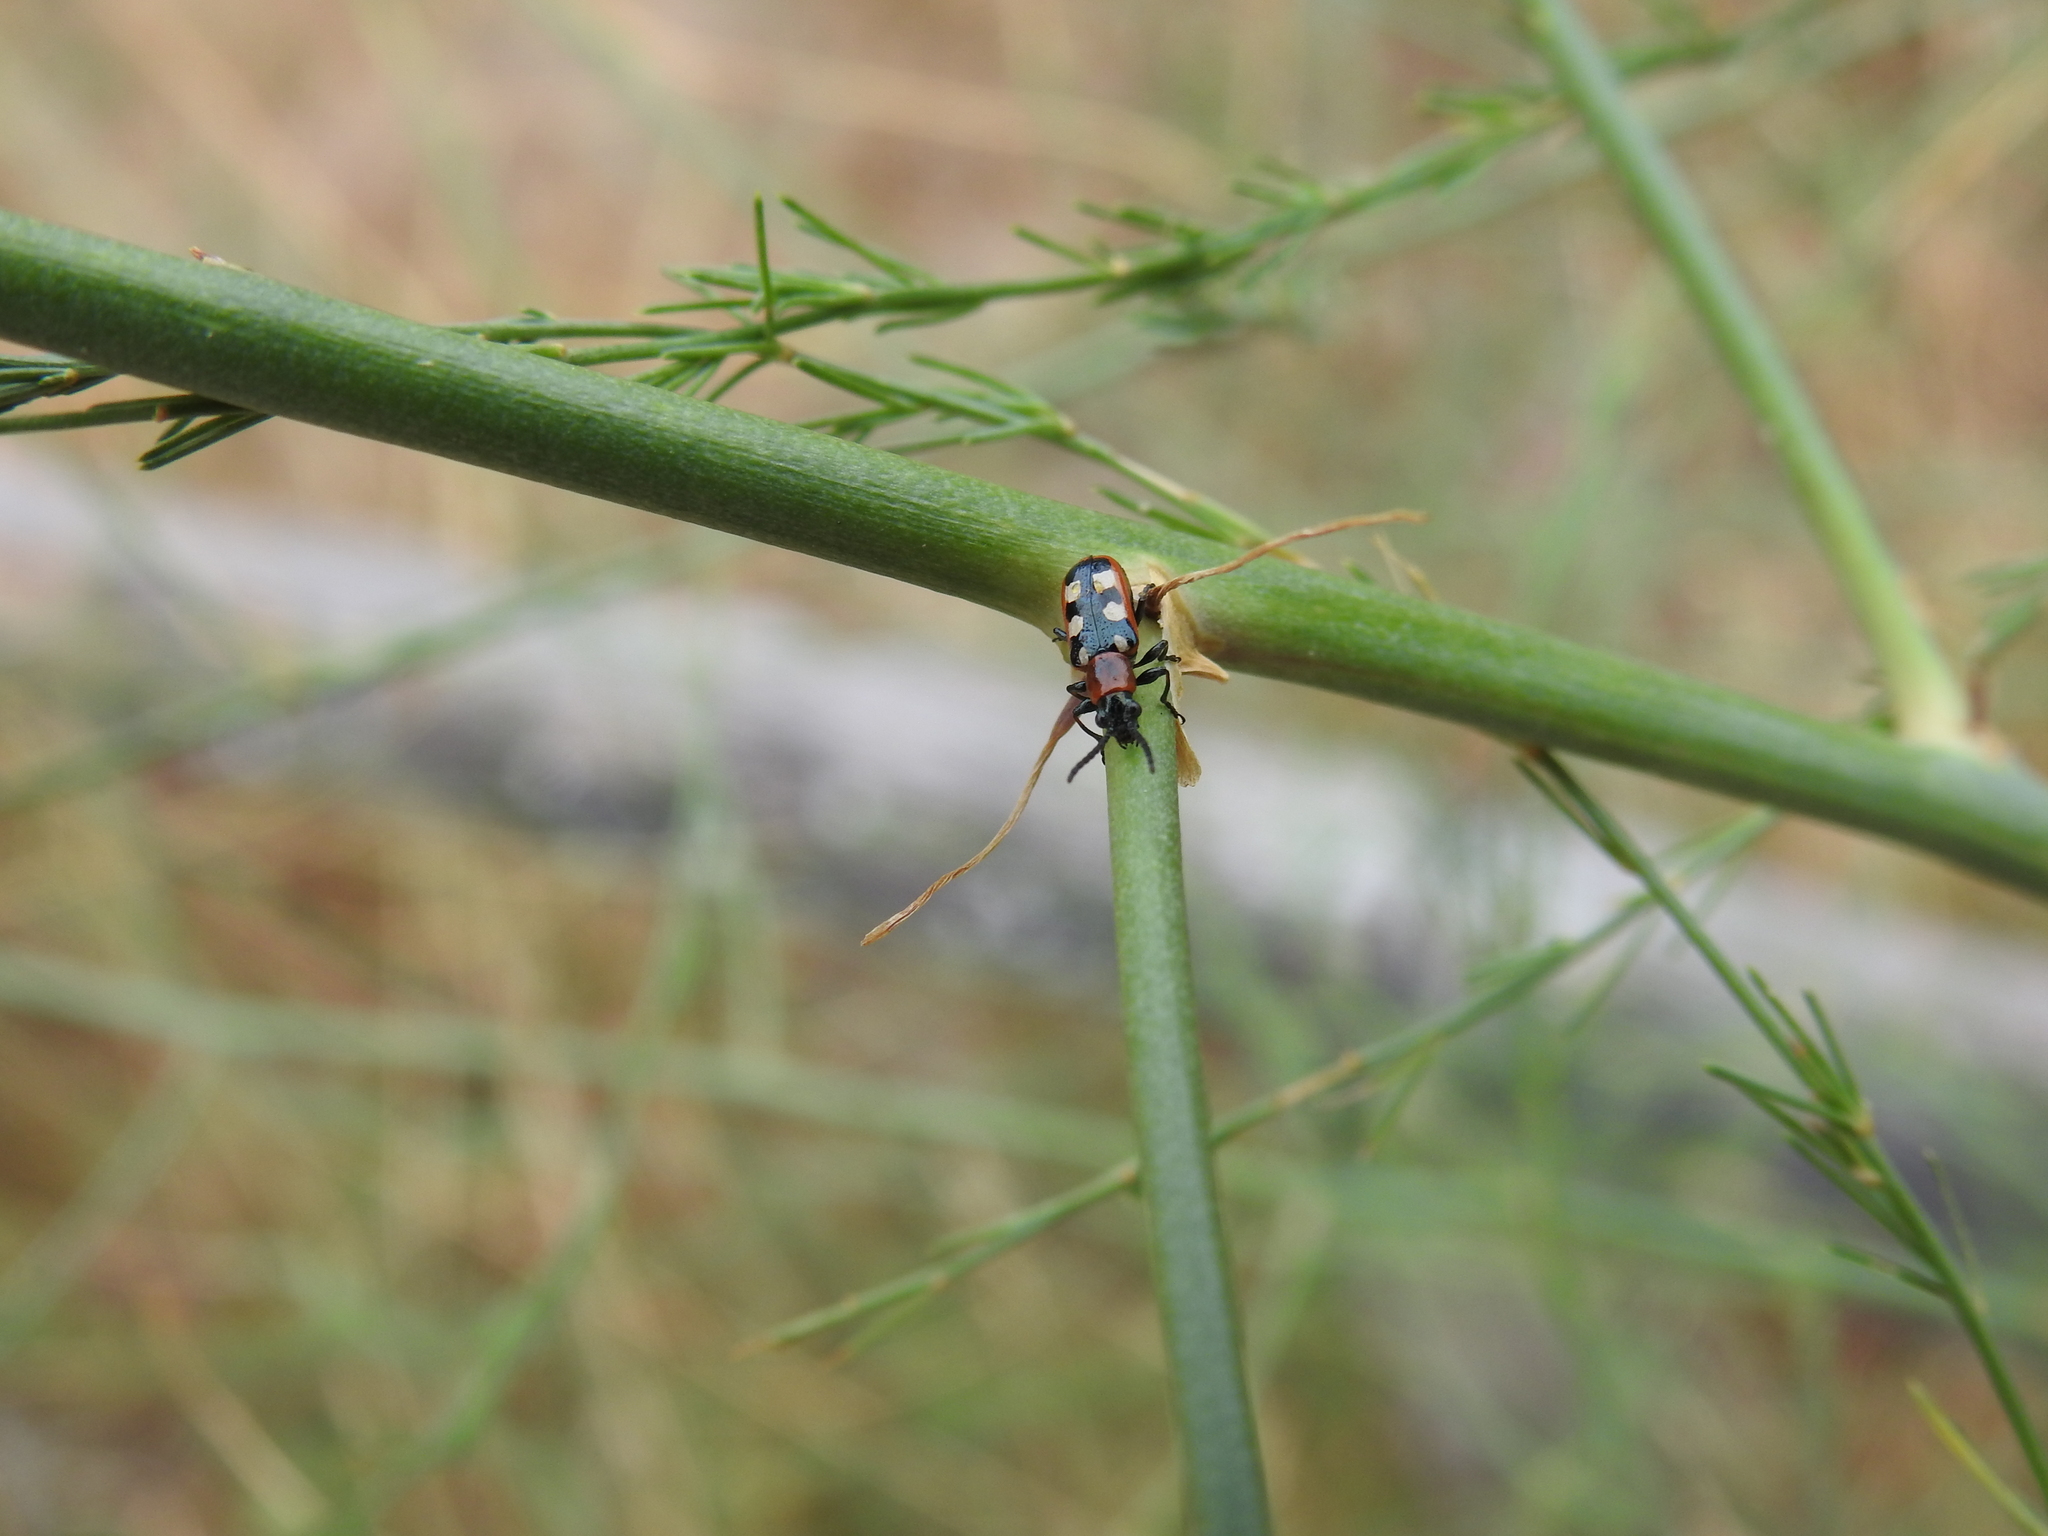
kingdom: Animalia
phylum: Arthropoda
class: Insecta
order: Coleoptera
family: Chrysomelidae
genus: Crioceris
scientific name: Crioceris asparagi
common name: Asparagus beetle
